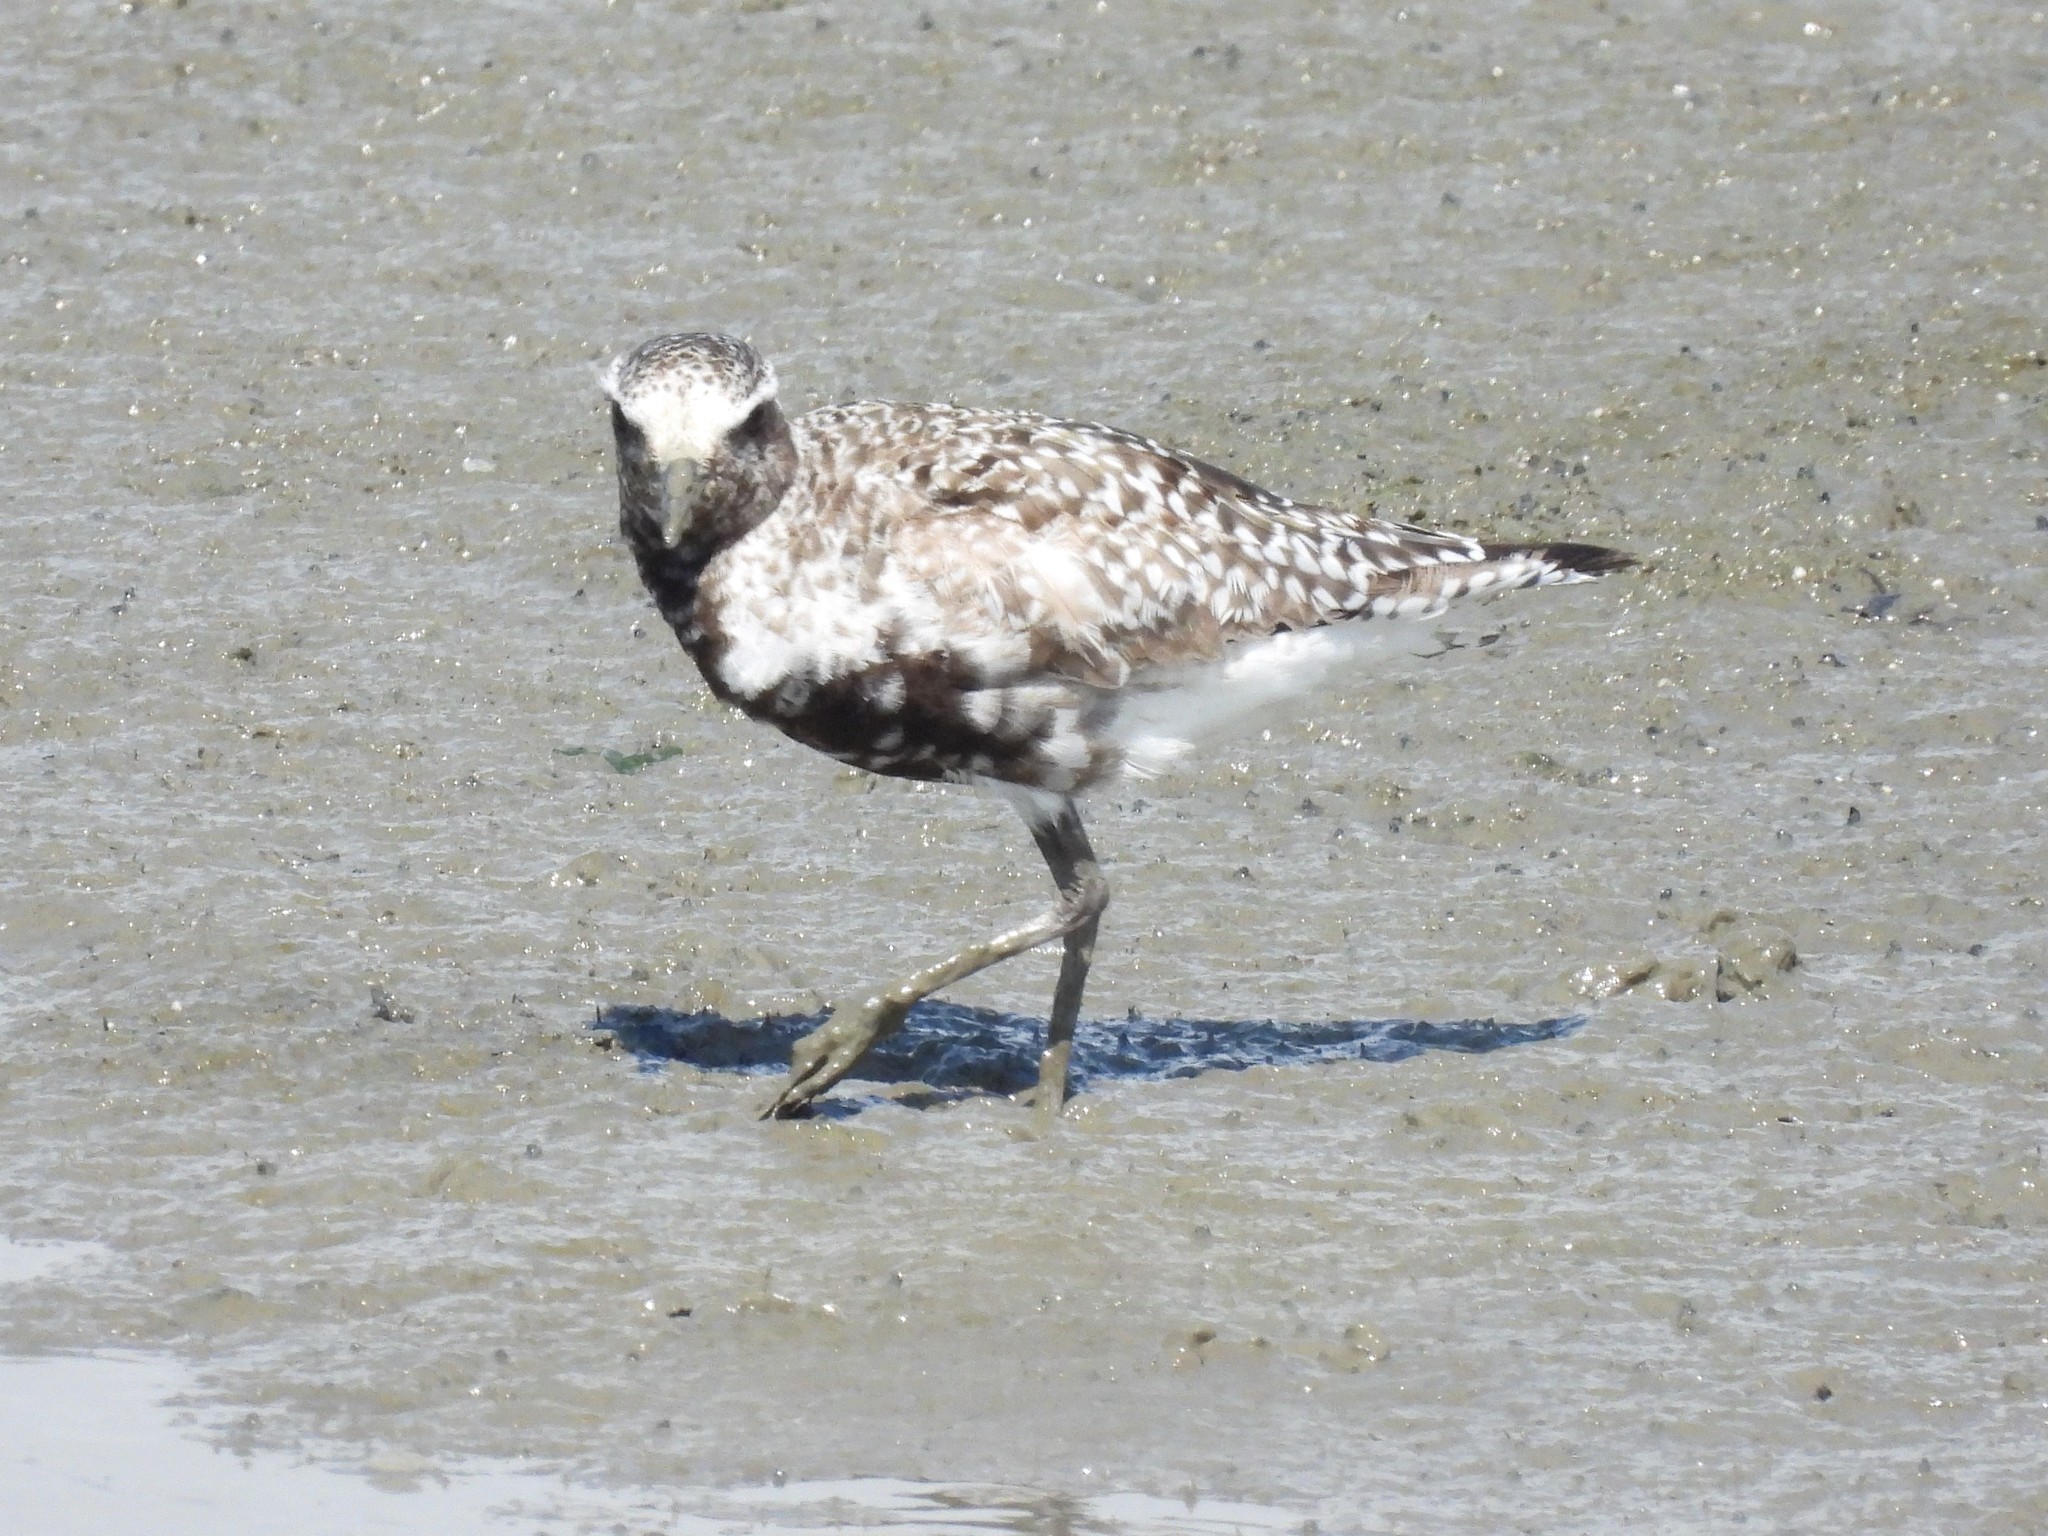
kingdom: Animalia
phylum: Chordata
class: Aves
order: Charadriiformes
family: Charadriidae
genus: Pluvialis
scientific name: Pluvialis squatarola
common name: Grey plover
